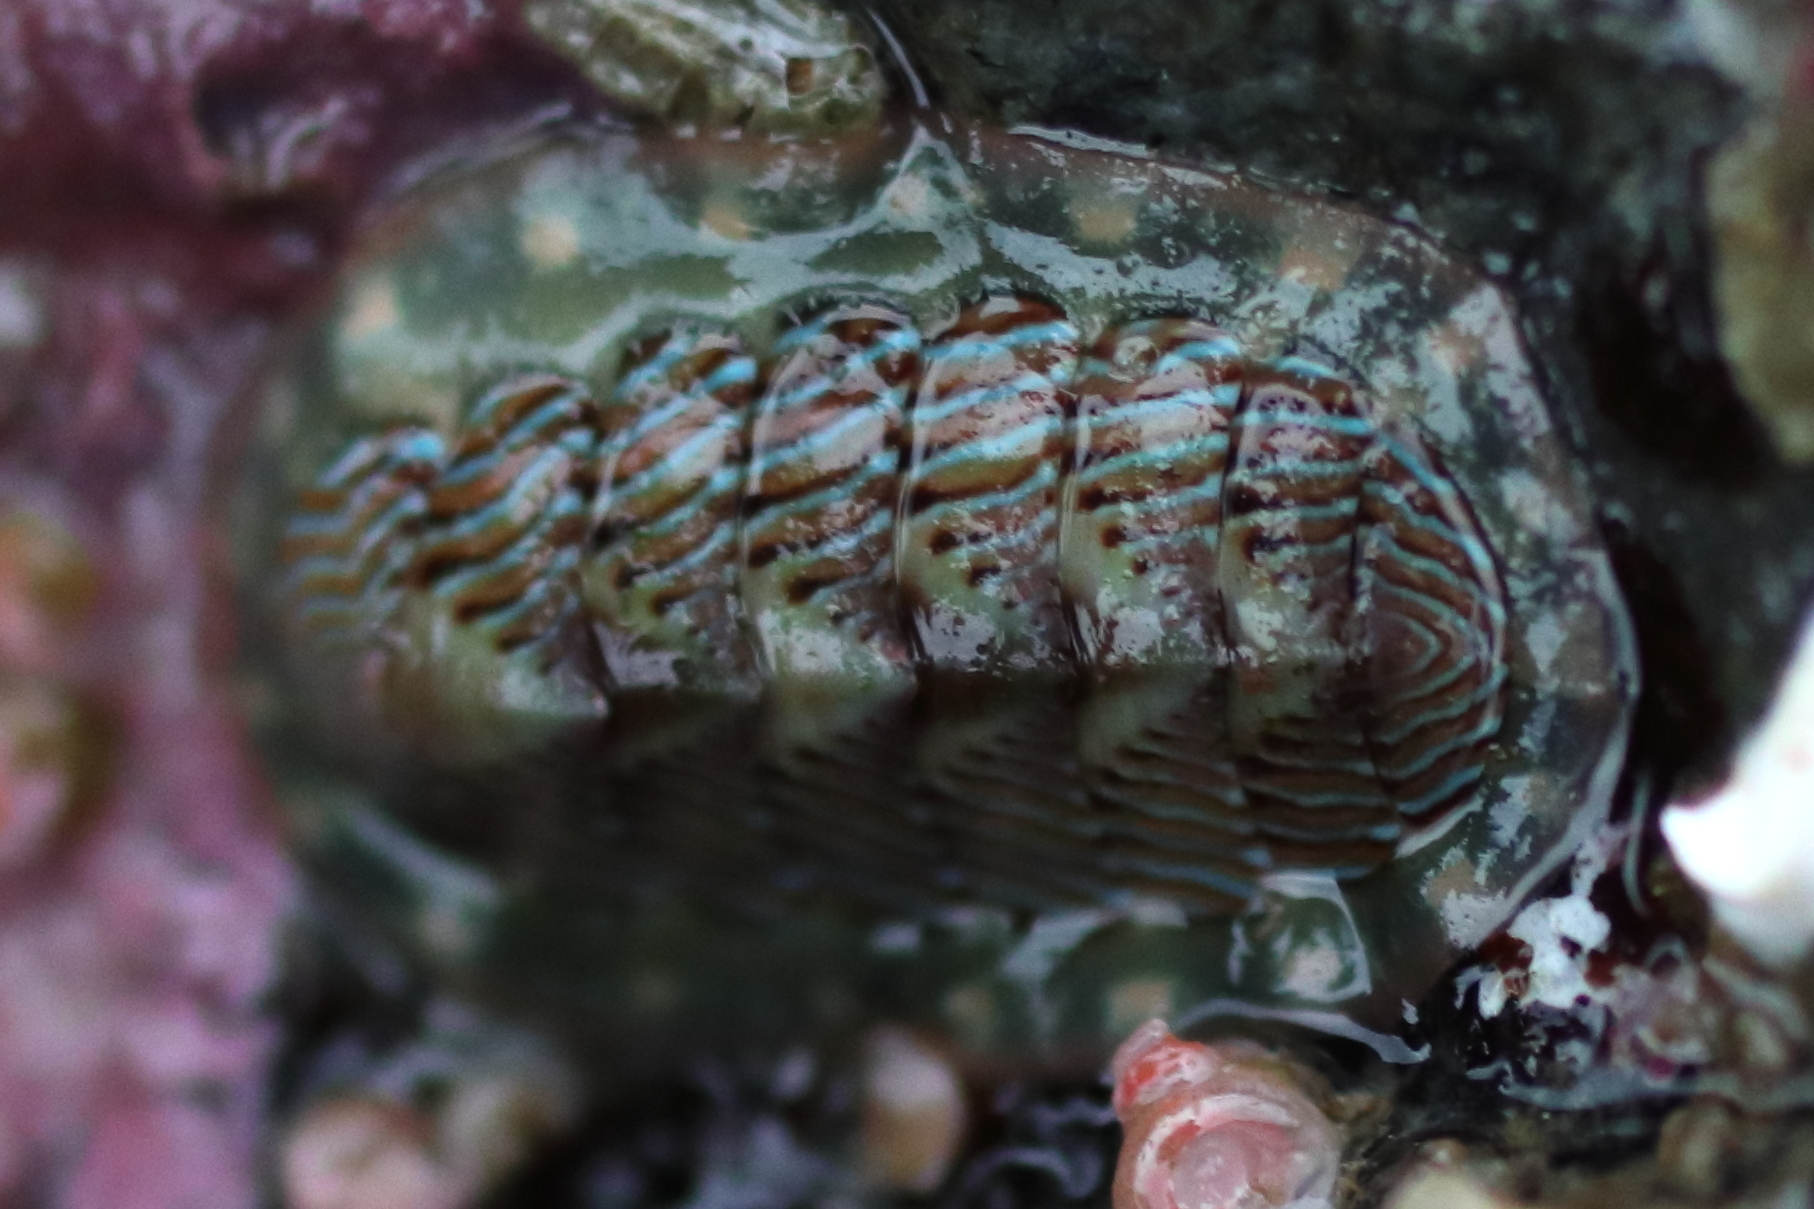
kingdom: Animalia
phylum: Mollusca
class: Polyplacophora
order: Chitonida
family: Tonicellidae
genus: Tonicella
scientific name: Tonicella lineata
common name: Lined chiton
